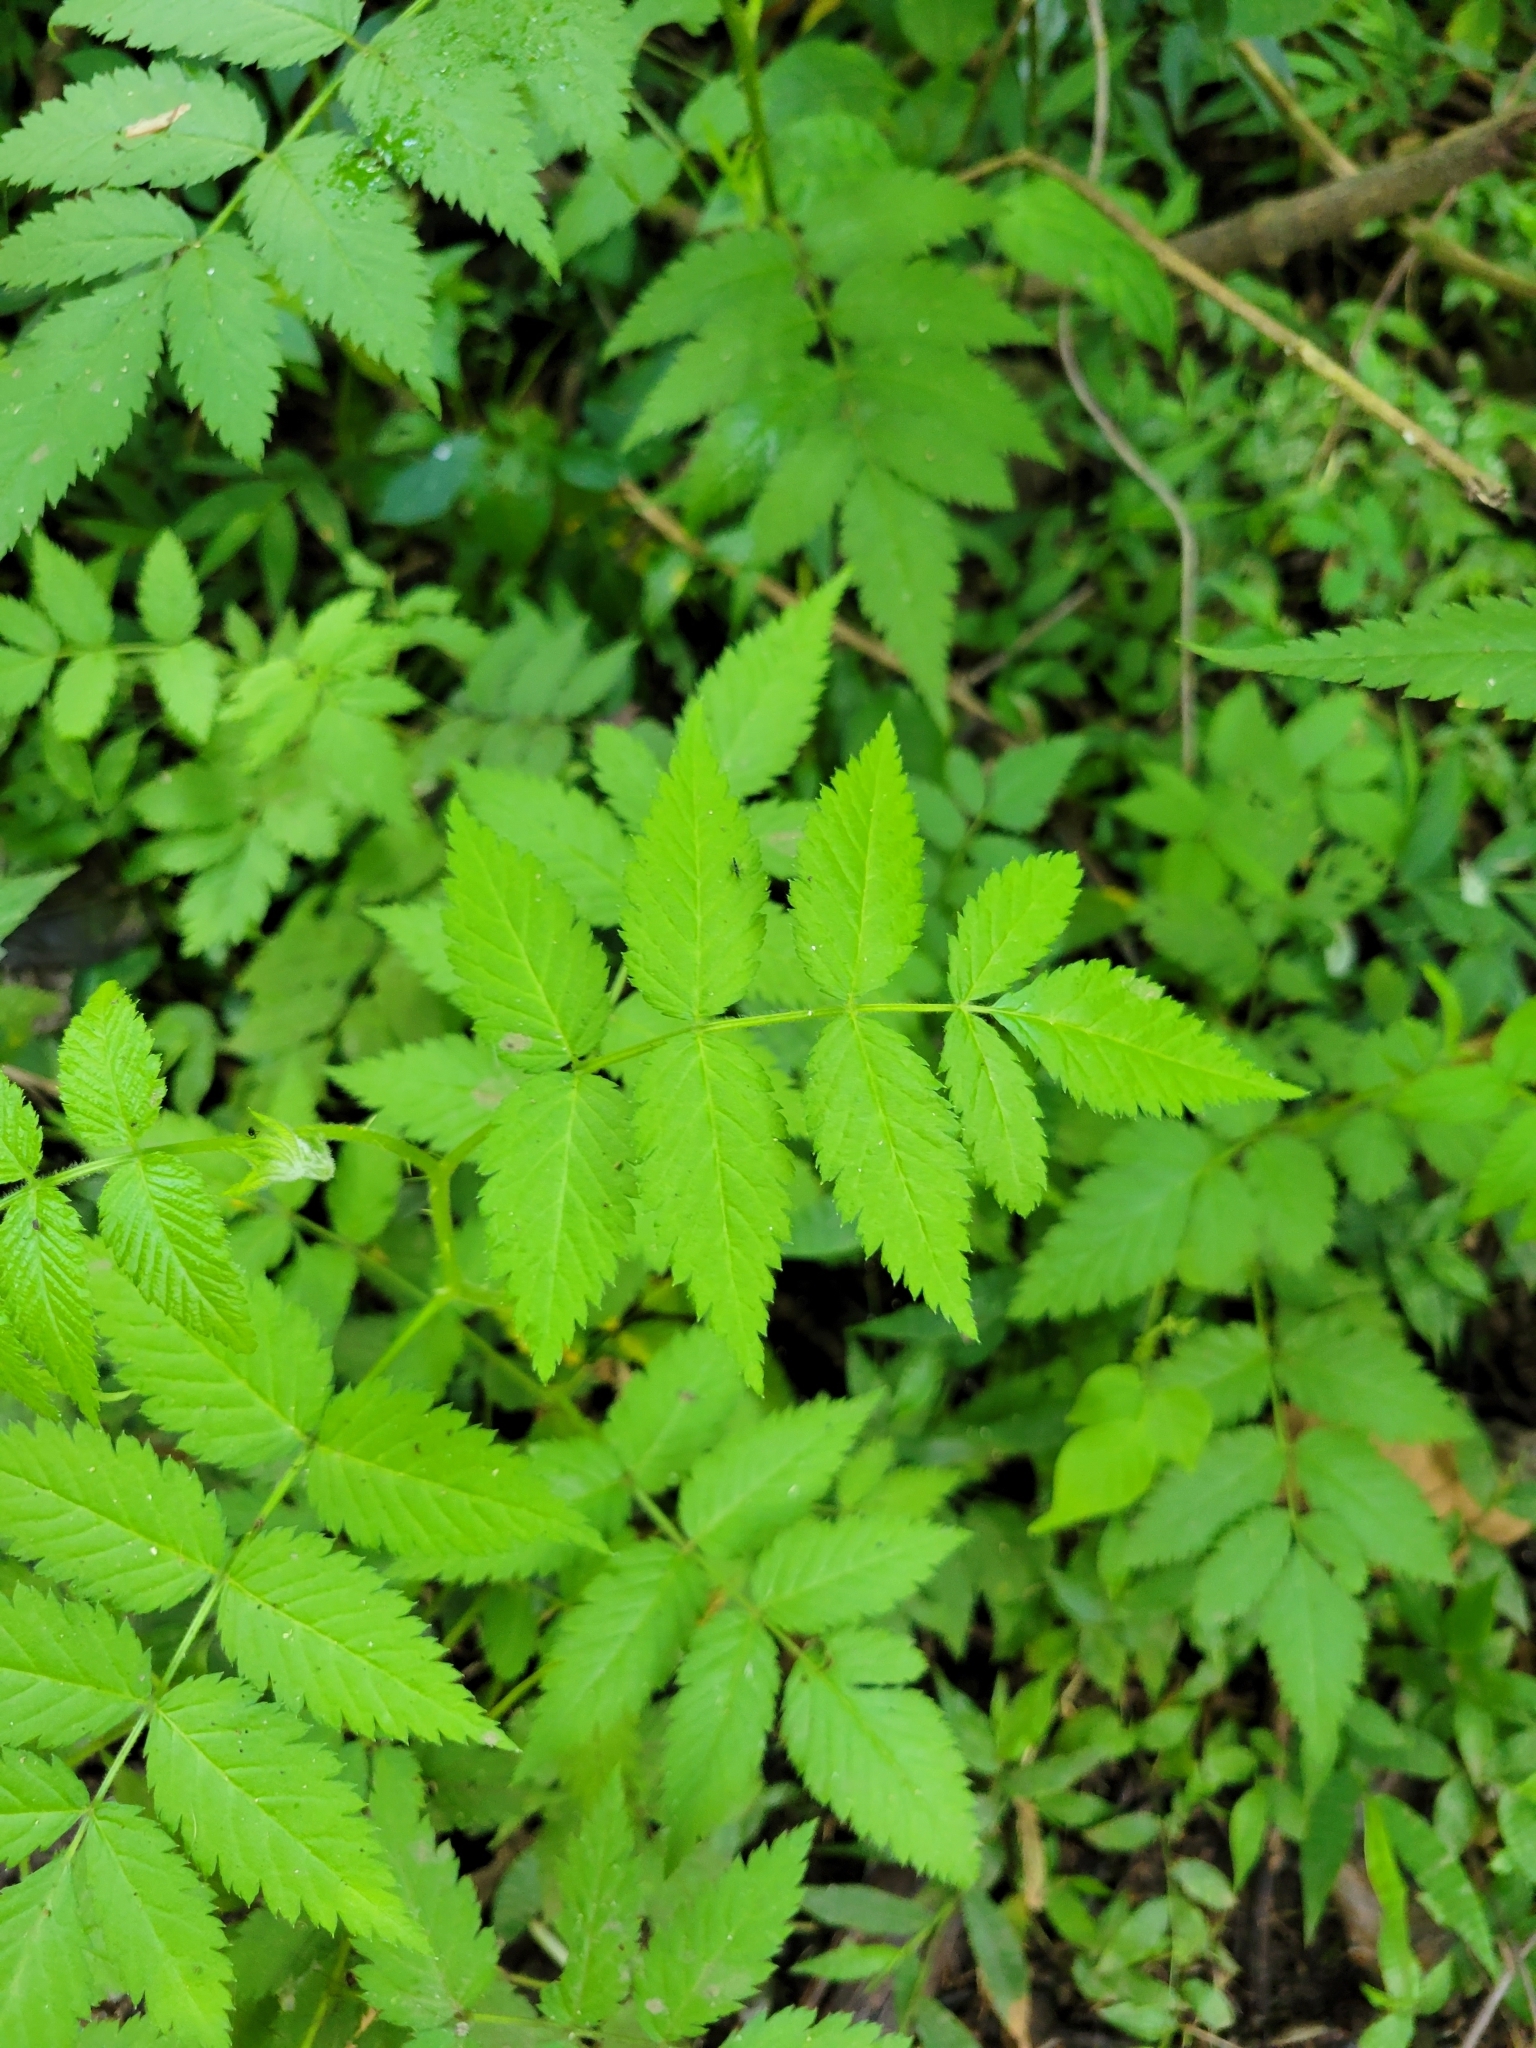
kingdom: Plantae
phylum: Tracheophyta
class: Magnoliopsida
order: Rosales
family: Rosaceae
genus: Rubus
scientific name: Rubus rosifolius
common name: Roseleaf raspberry
